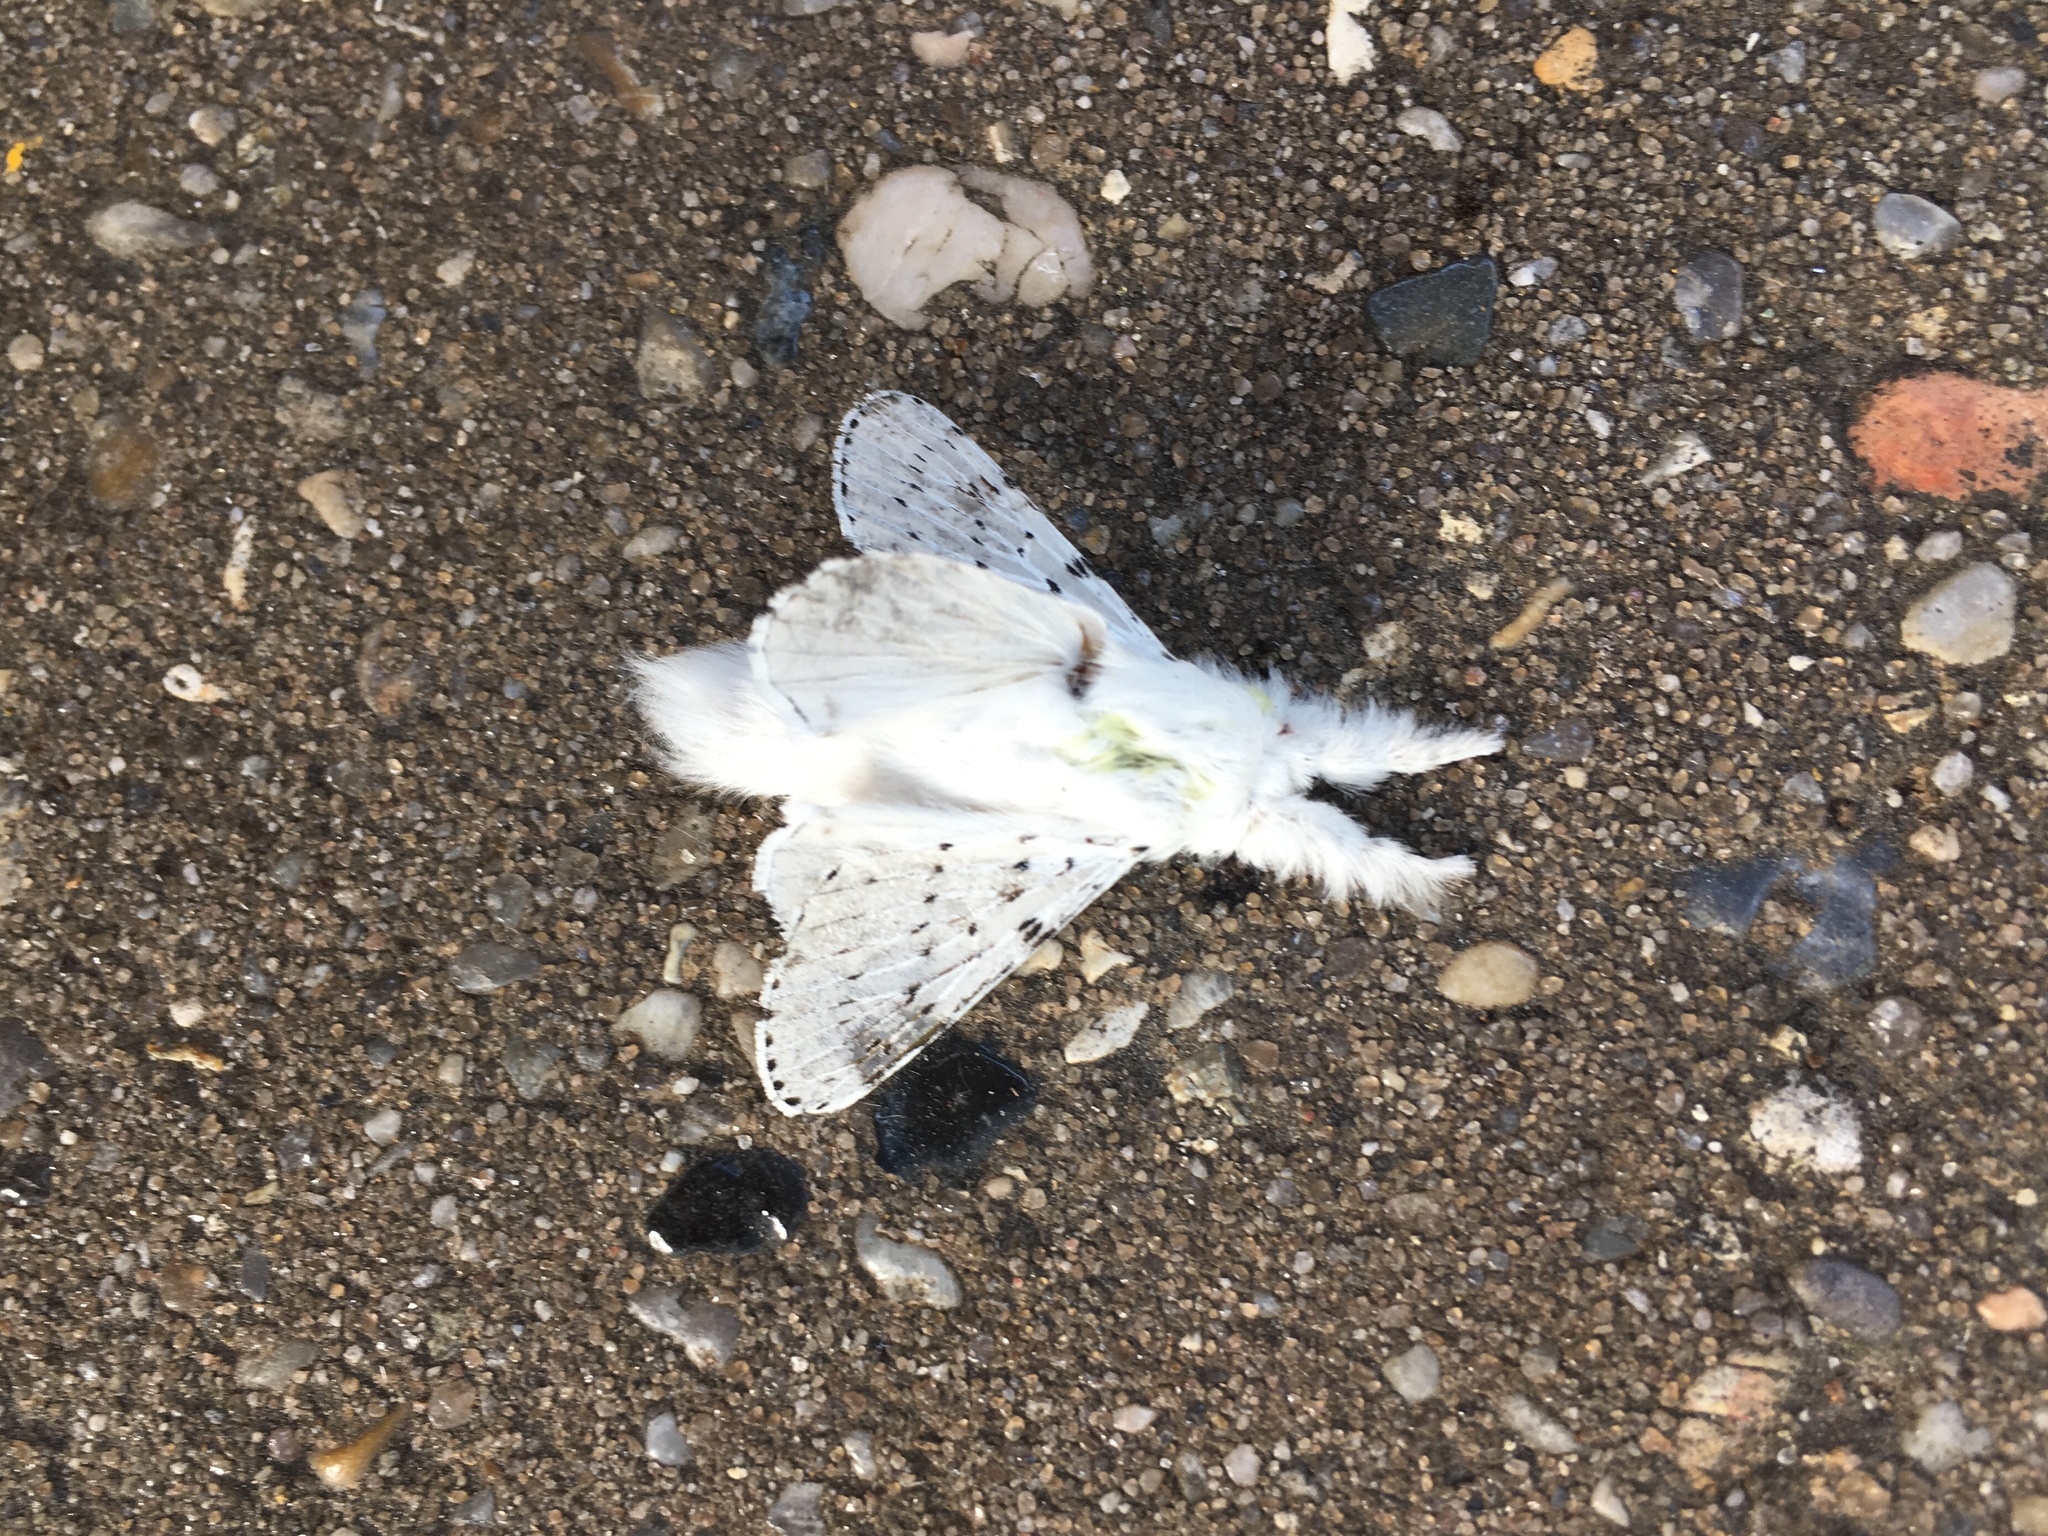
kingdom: Animalia
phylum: Arthropoda
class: Insecta
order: Lepidoptera
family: Lasiocampidae
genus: Artace
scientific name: Artace cribrarius
